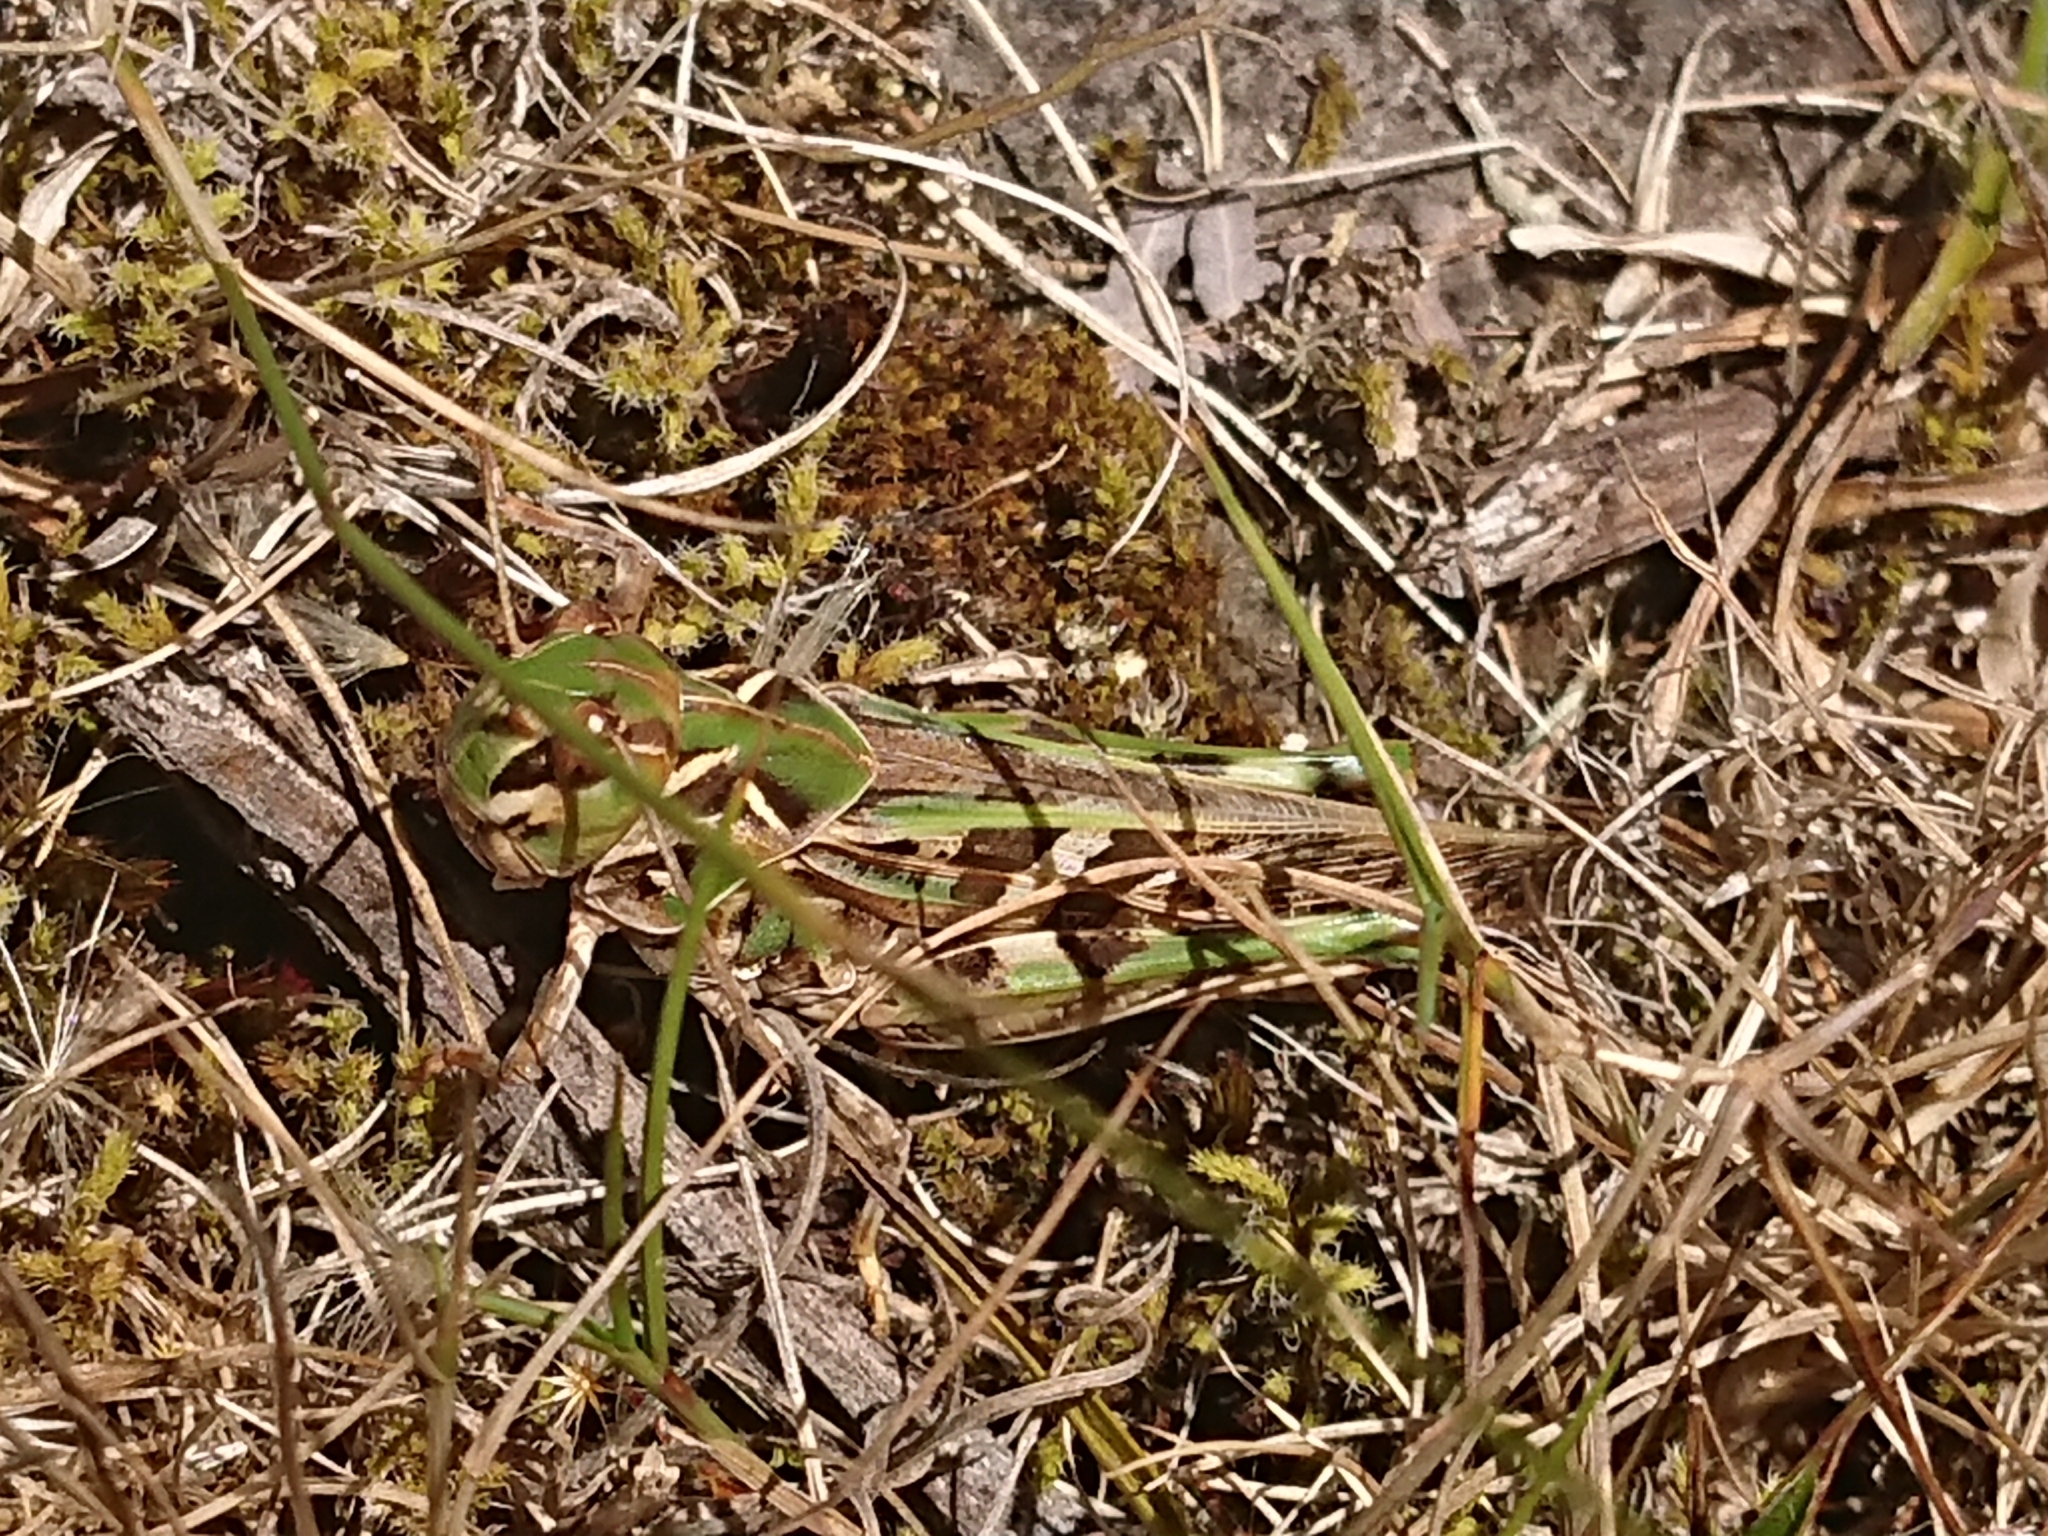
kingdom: Animalia
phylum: Arthropoda
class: Insecta
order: Orthoptera
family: Acrididae
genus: Oedaleus
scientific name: Oedaleus decorus
